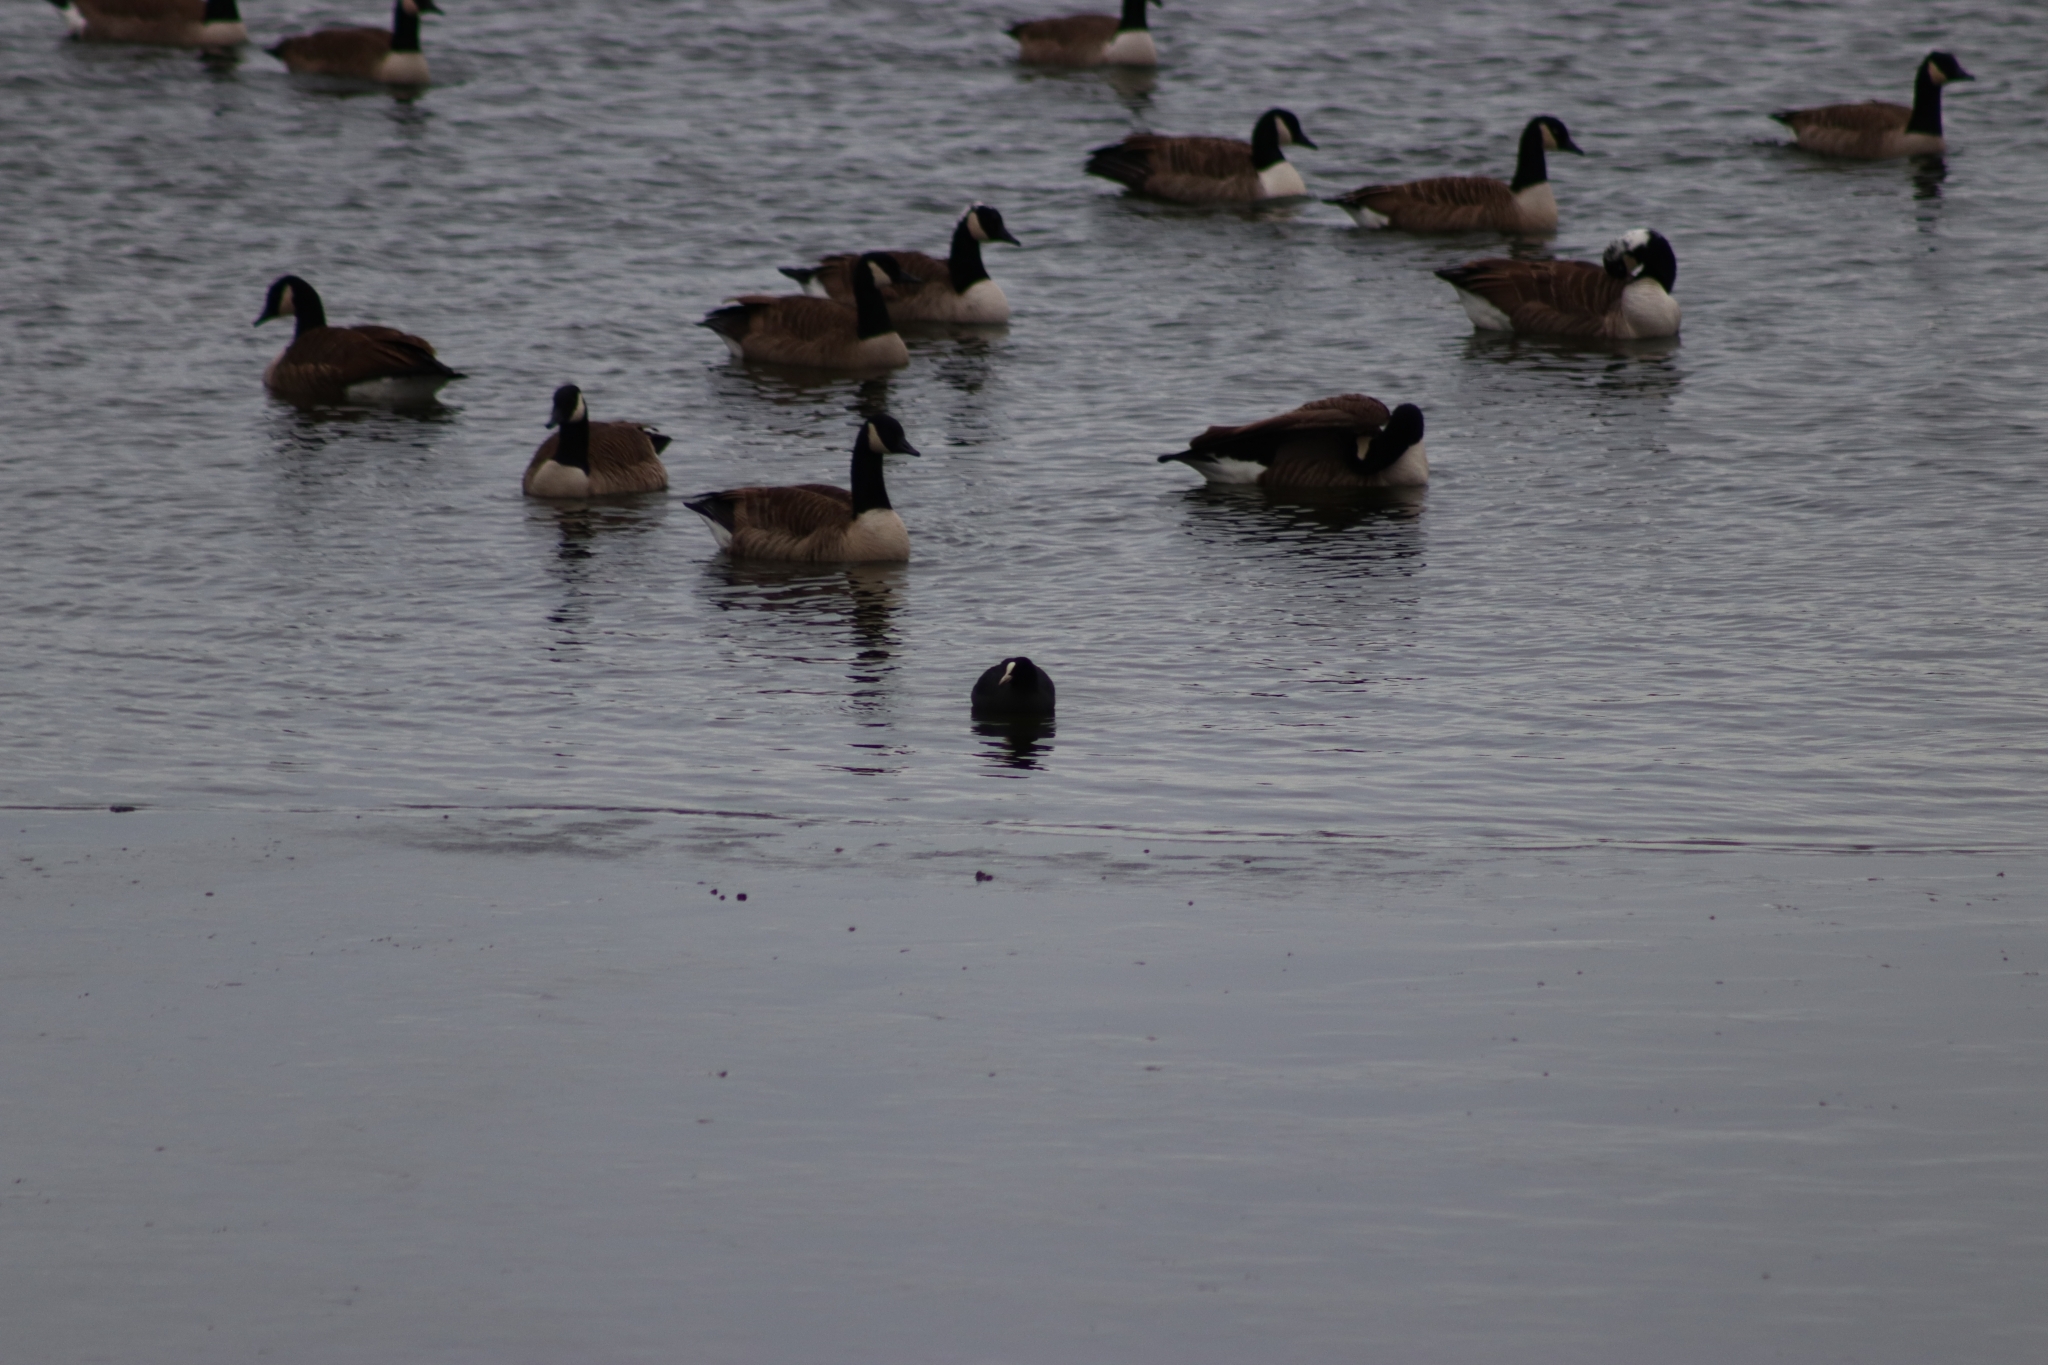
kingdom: Animalia
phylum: Chordata
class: Aves
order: Gruiformes
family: Rallidae
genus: Fulica
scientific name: Fulica atra
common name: Eurasian coot
